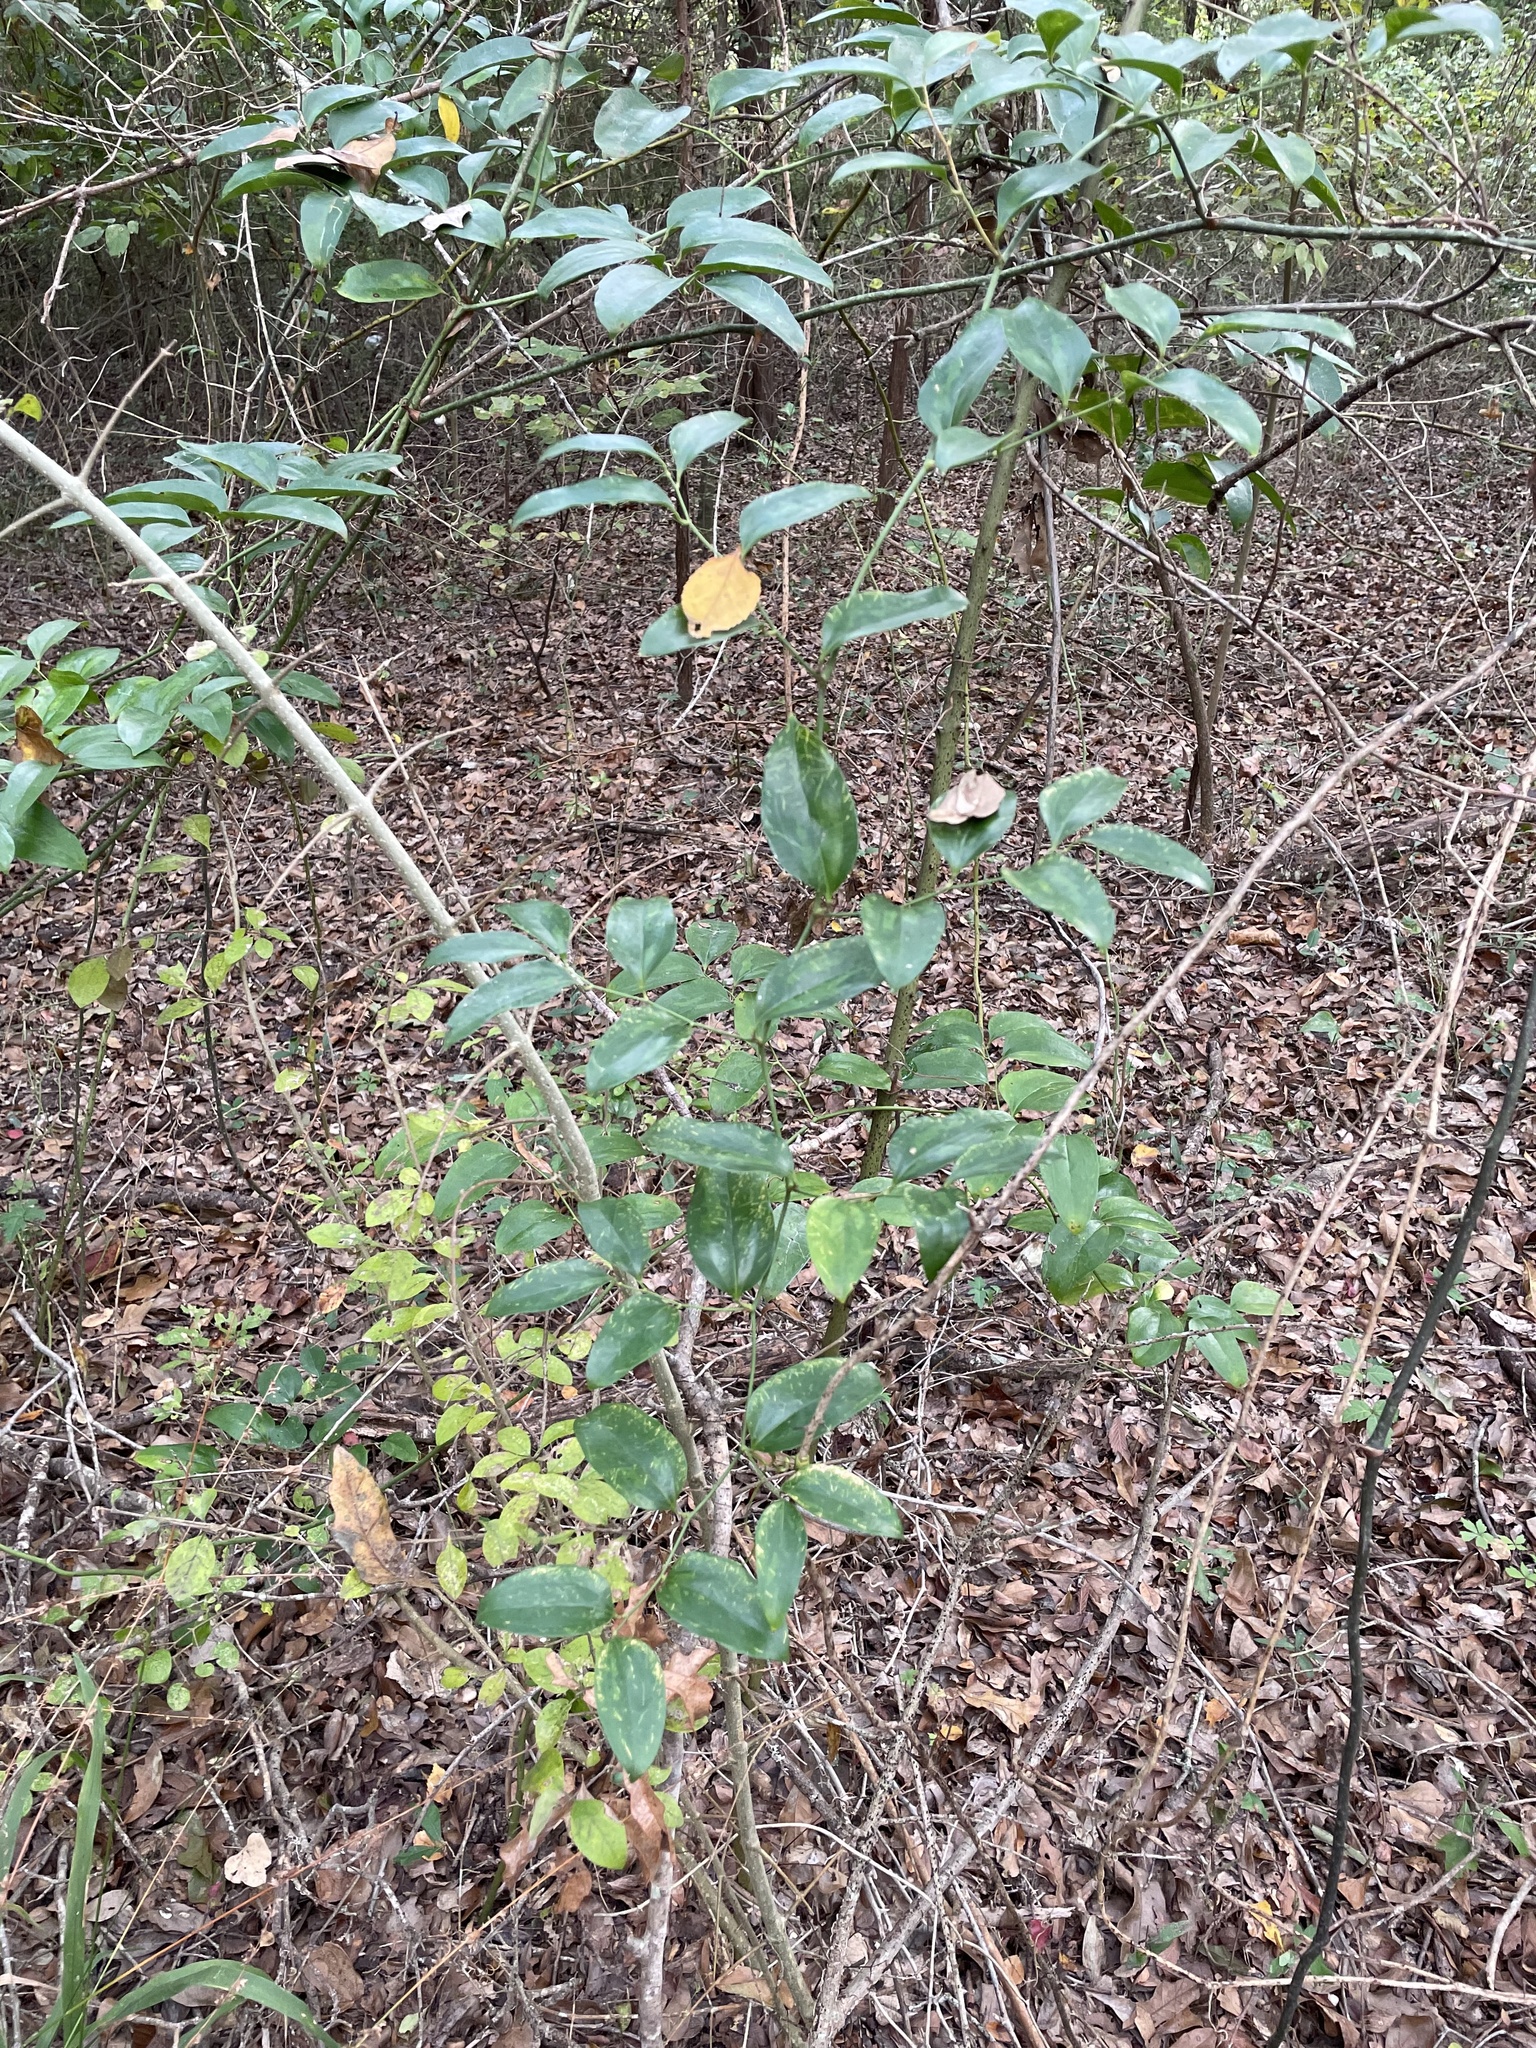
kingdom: Plantae
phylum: Tracheophyta
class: Liliopsida
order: Liliales
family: Smilacaceae
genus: Smilax
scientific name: Smilax maritima
